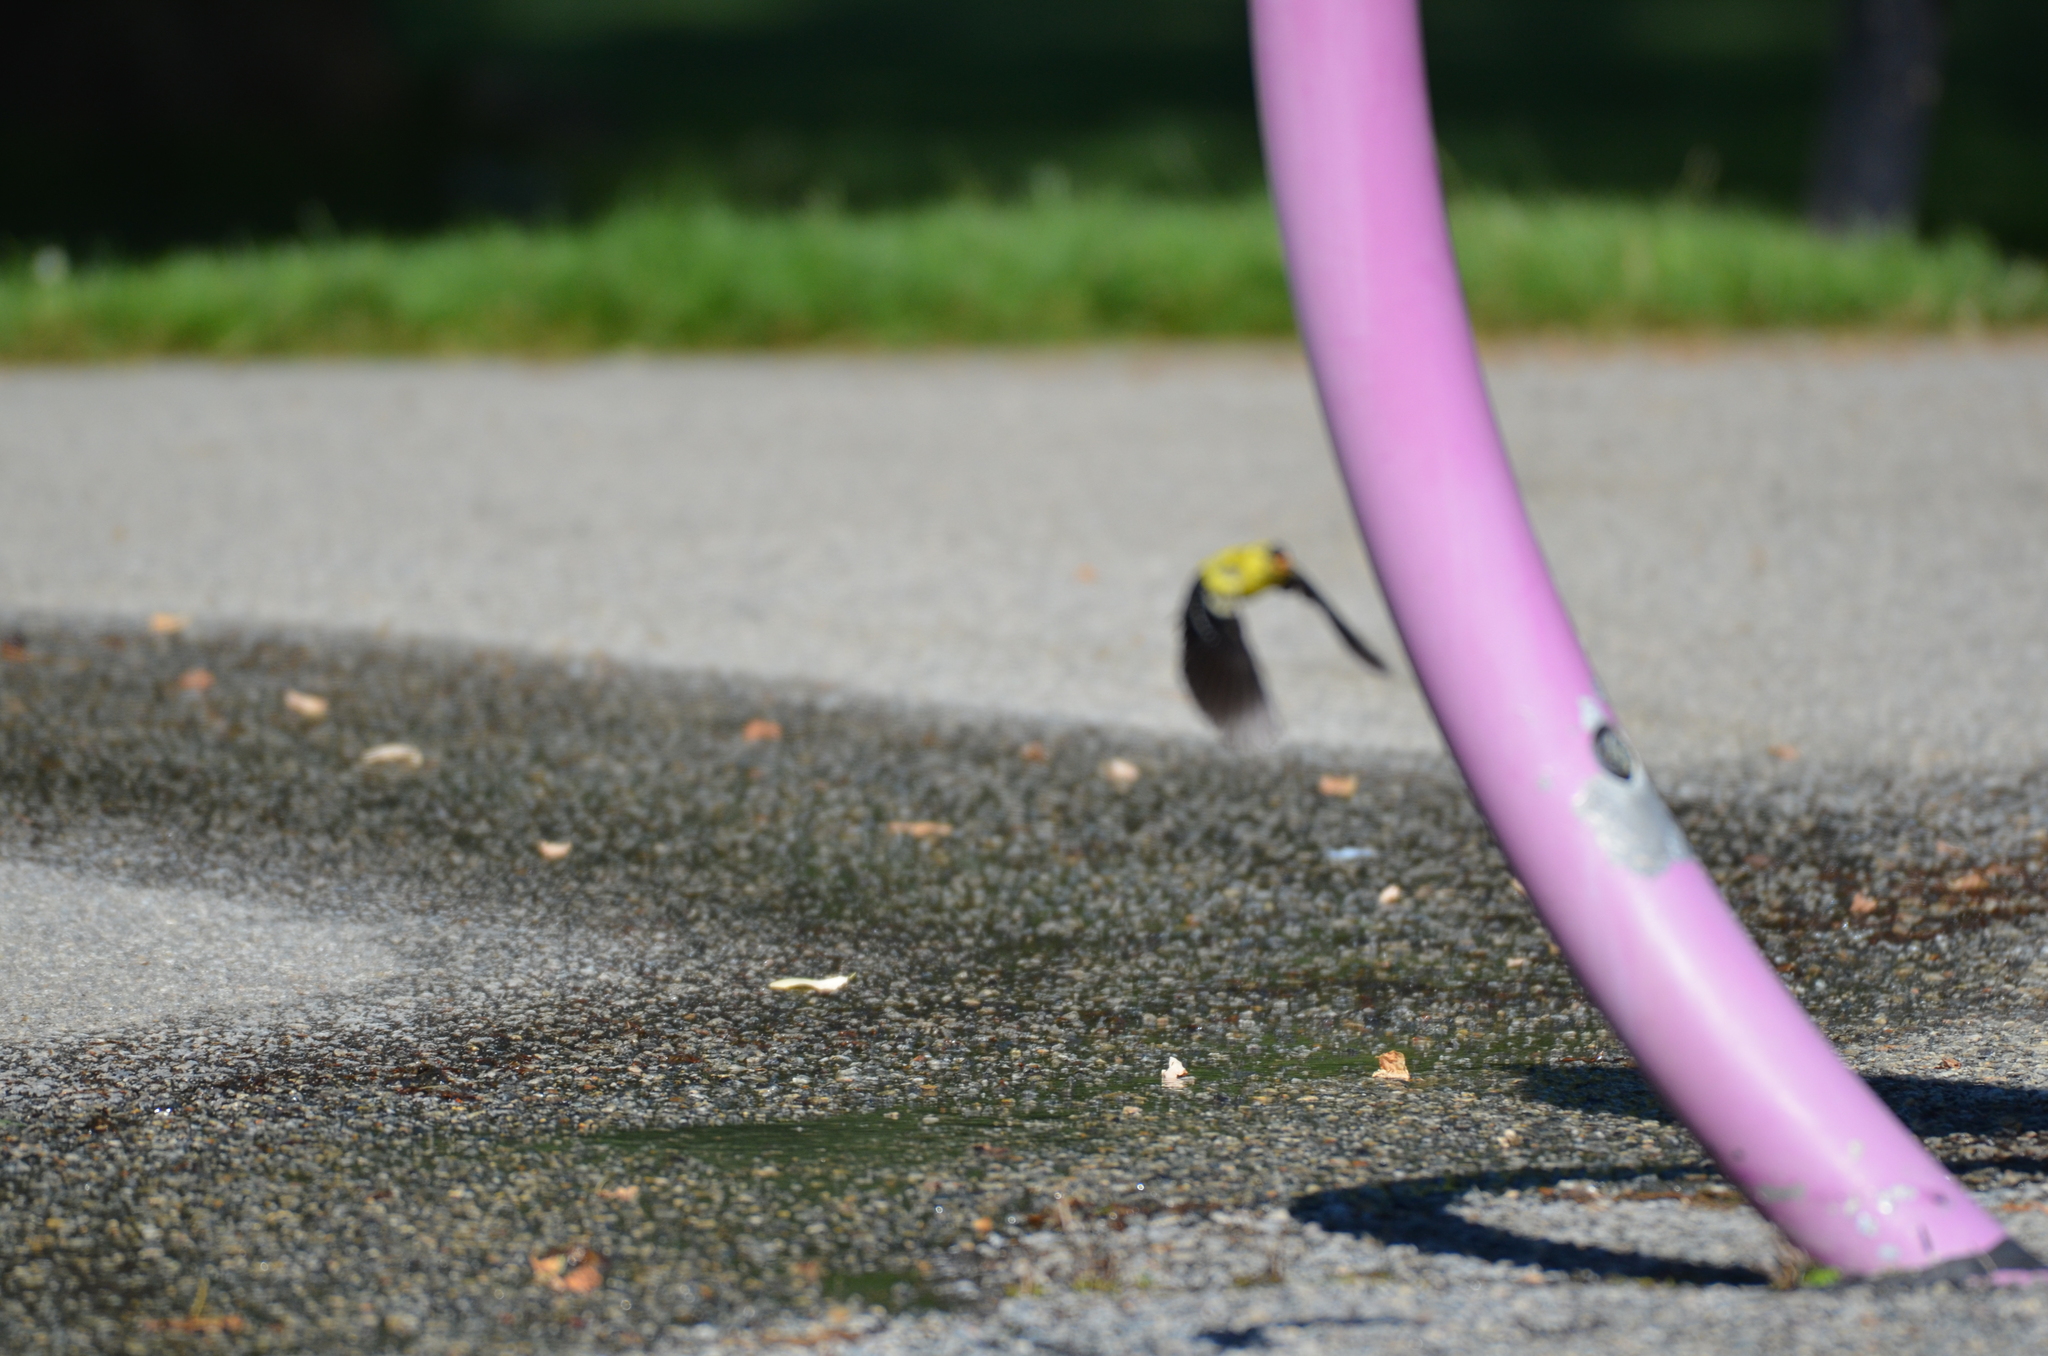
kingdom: Animalia
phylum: Chordata
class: Aves
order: Passeriformes
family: Fringillidae
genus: Spinus
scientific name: Spinus tristis
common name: American goldfinch
